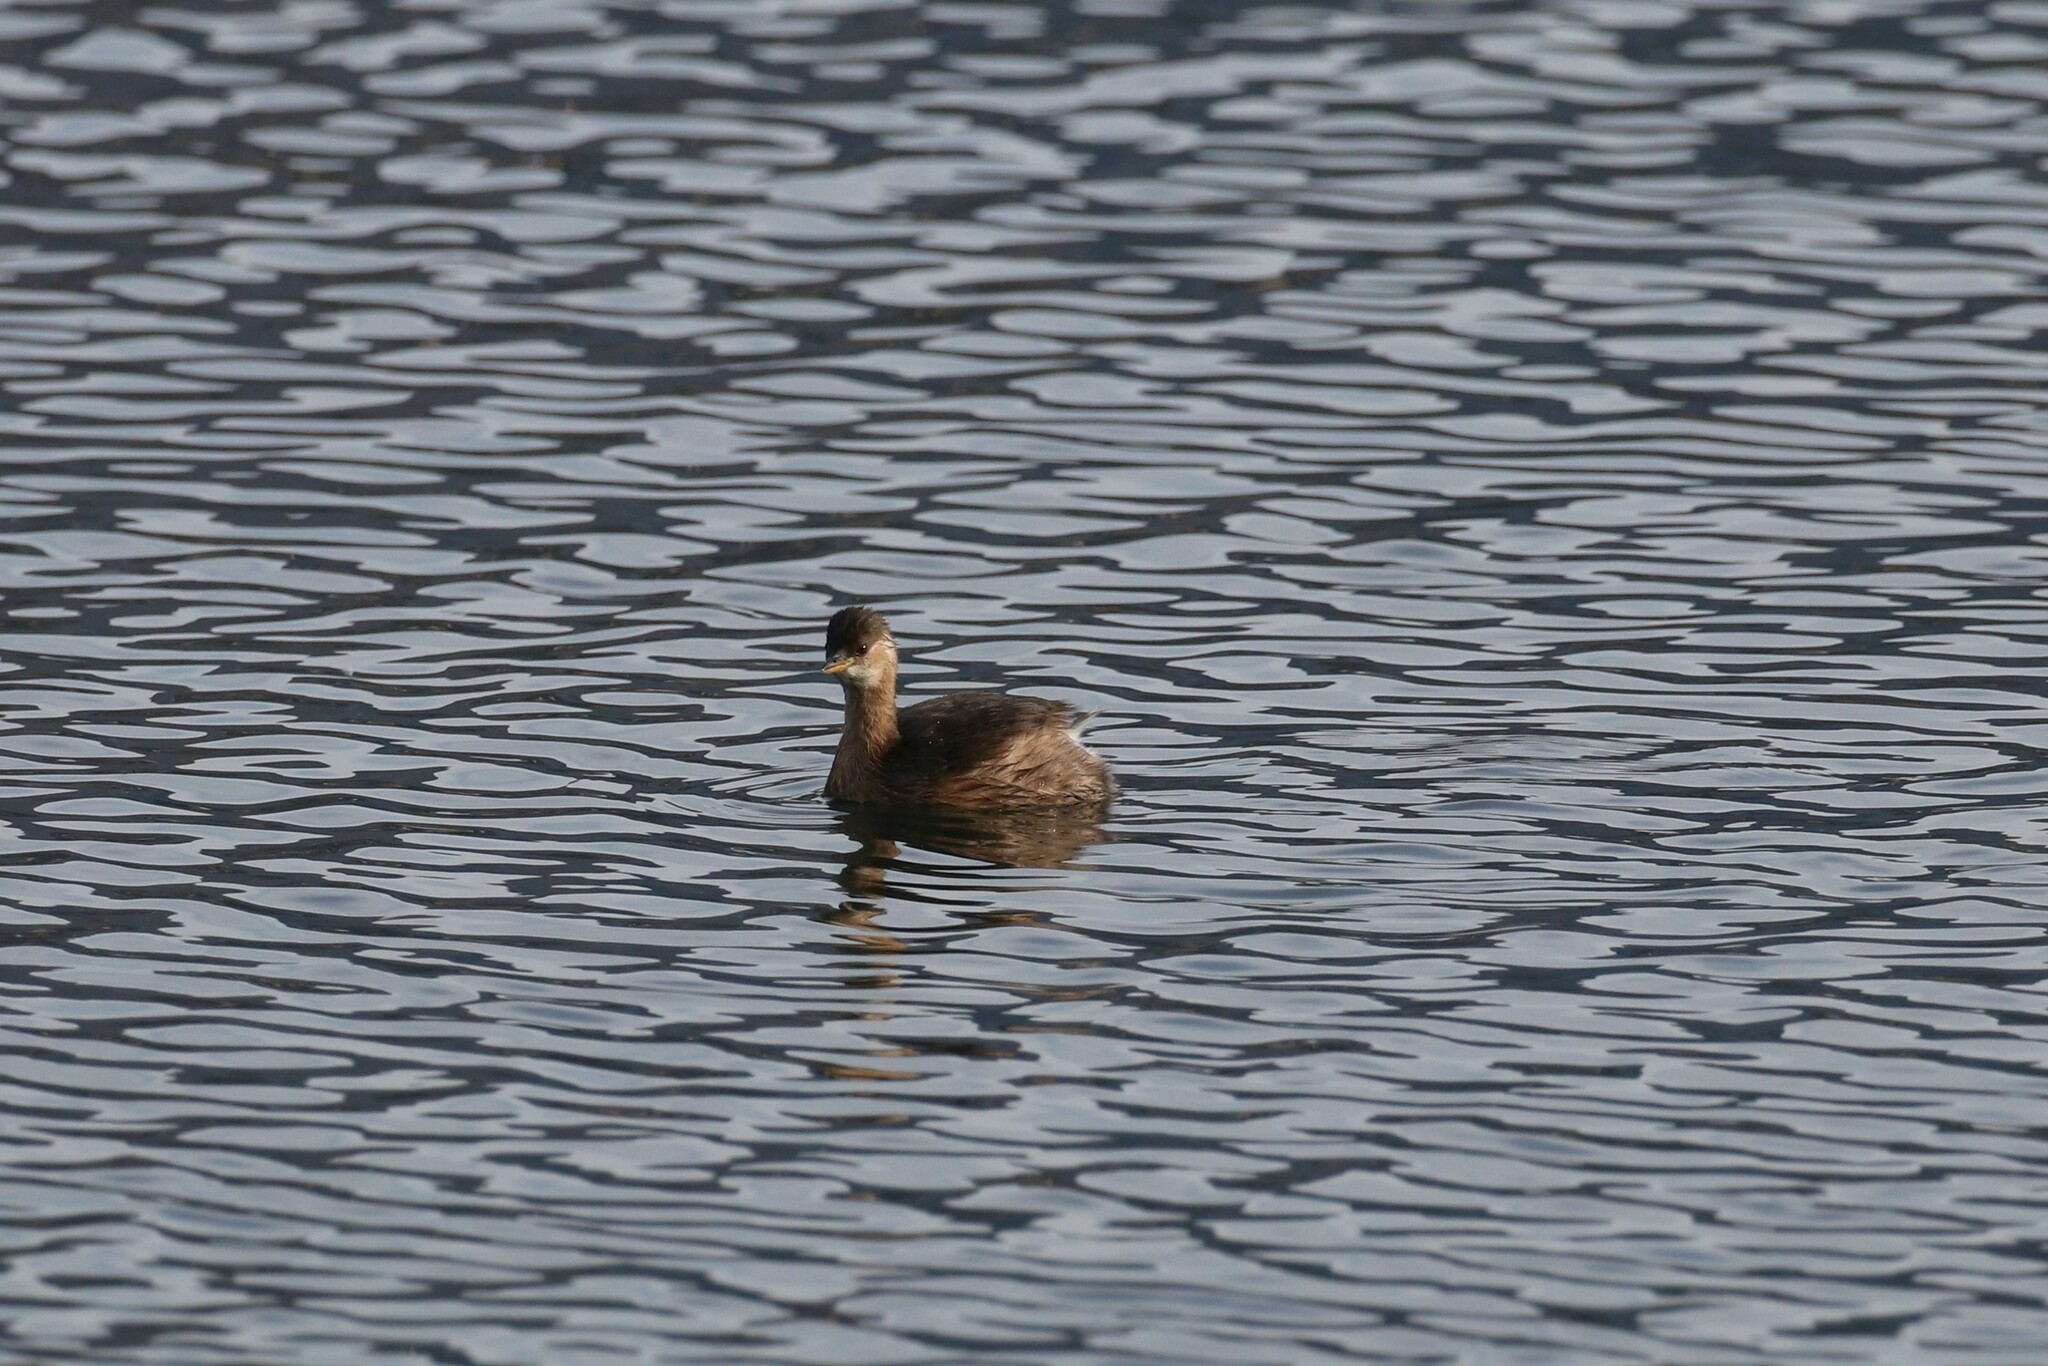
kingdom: Animalia
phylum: Chordata
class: Aves
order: Podicipediformes
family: Podicipedidae
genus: Tachybaptus
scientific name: Tachybaptus ruficollis
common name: Little grebe
